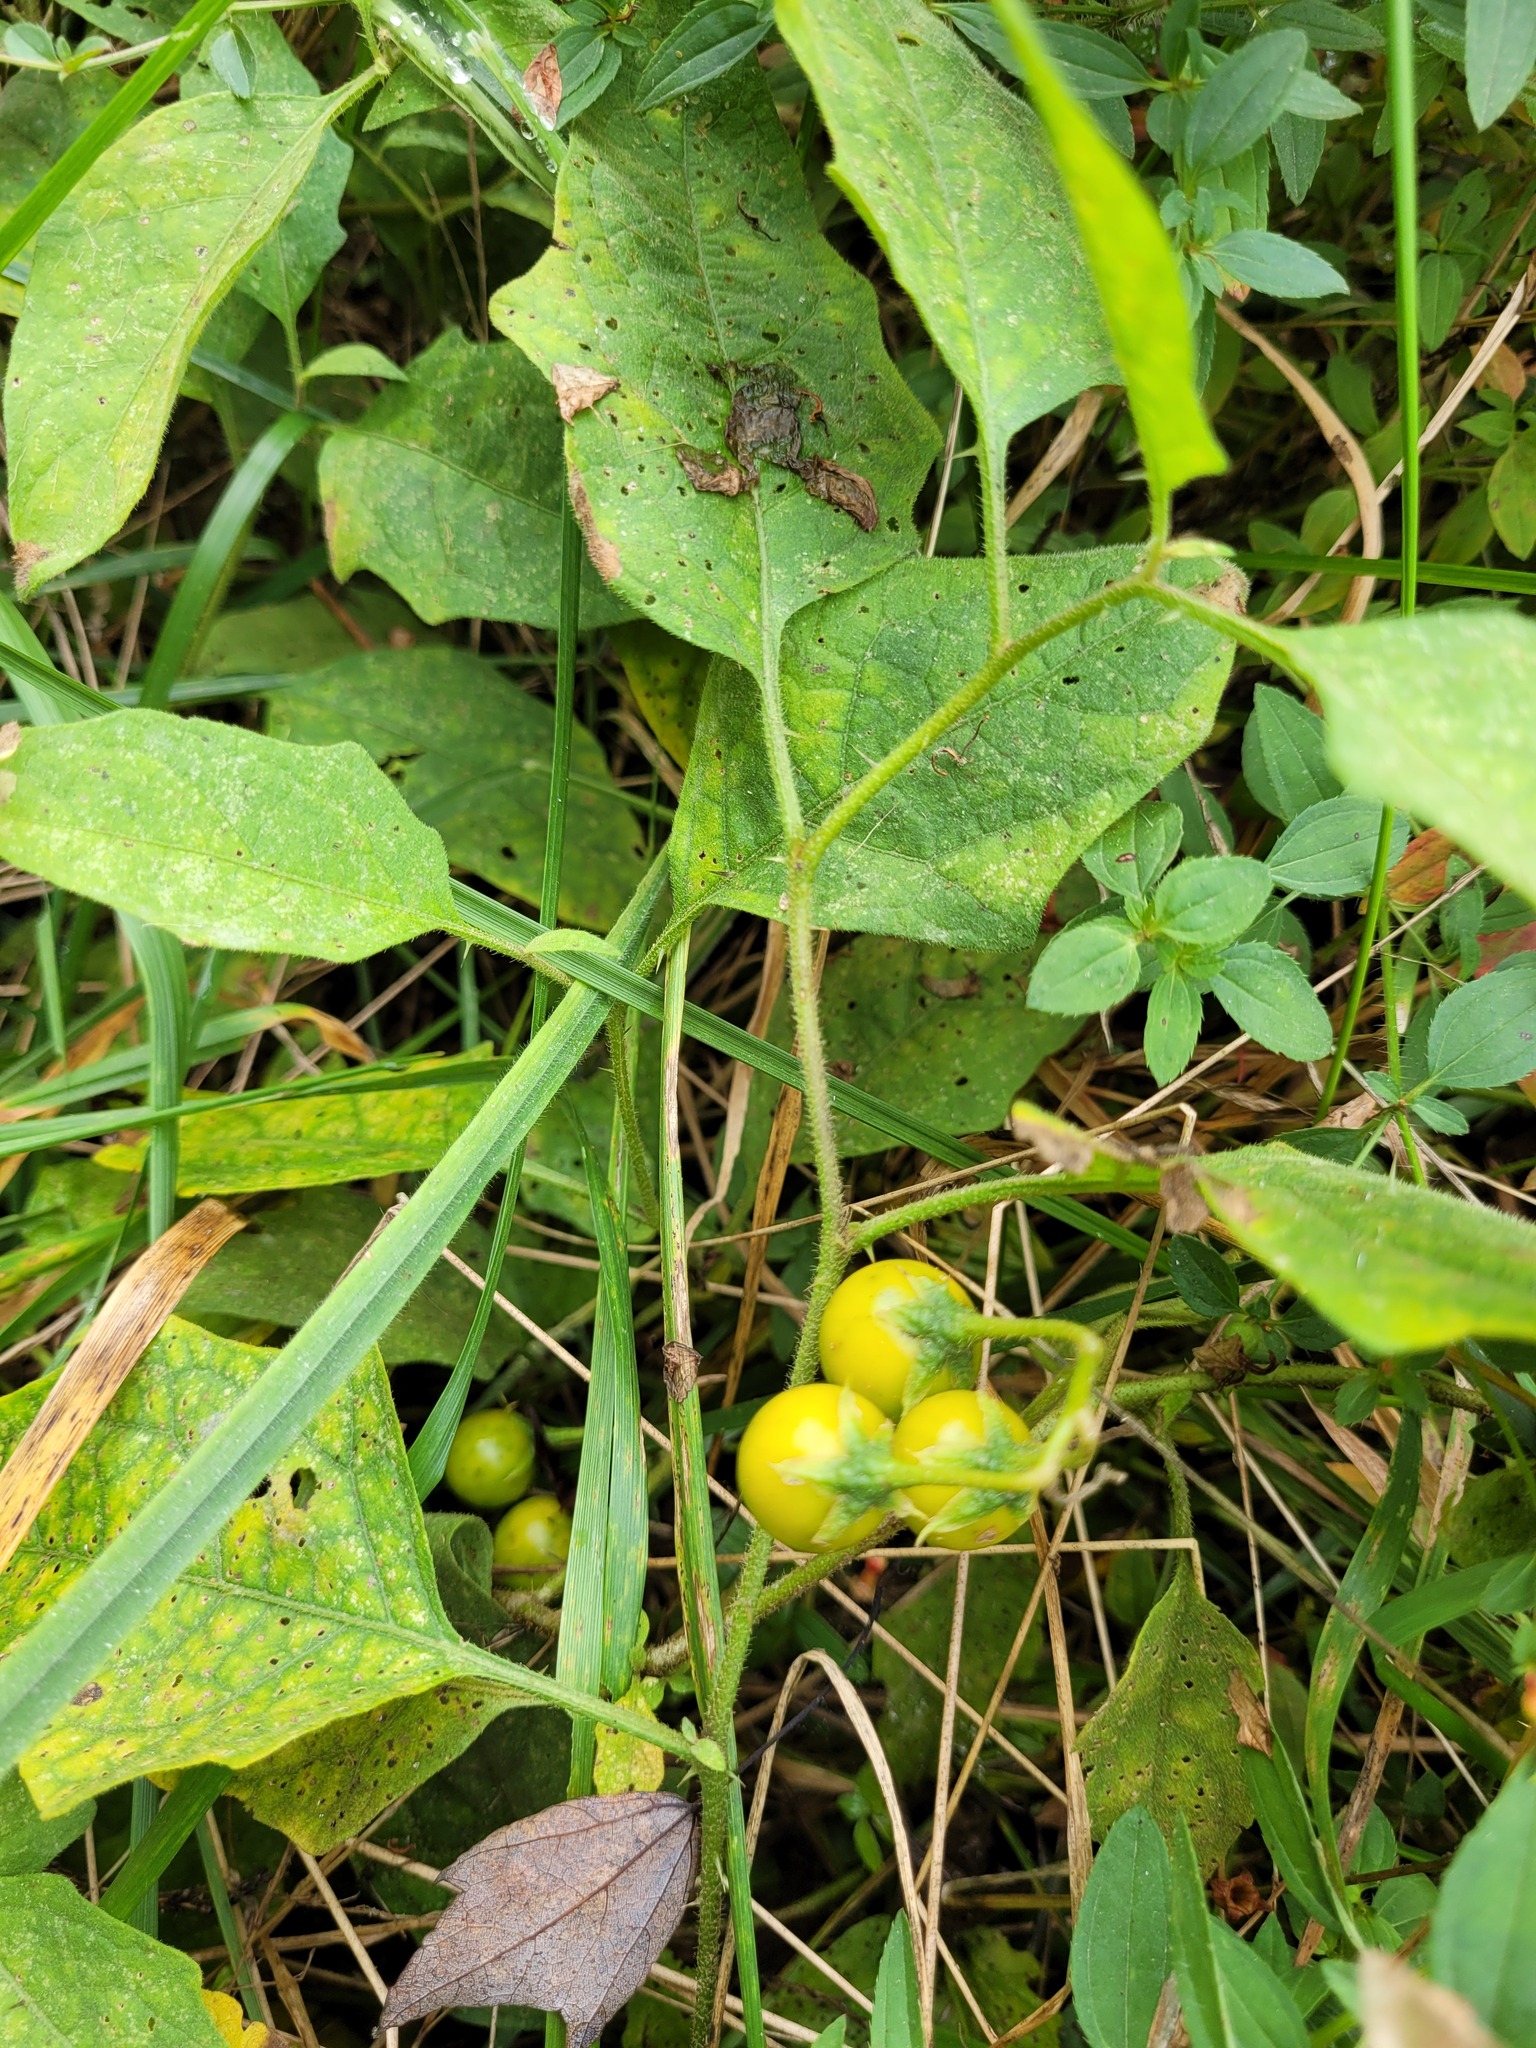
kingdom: Plantae
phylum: Tracheophyta
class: Magnoliopsida
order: Solanales
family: Solanaceae
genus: Solanum
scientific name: Solanum carolinense
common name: Horse-nettle
